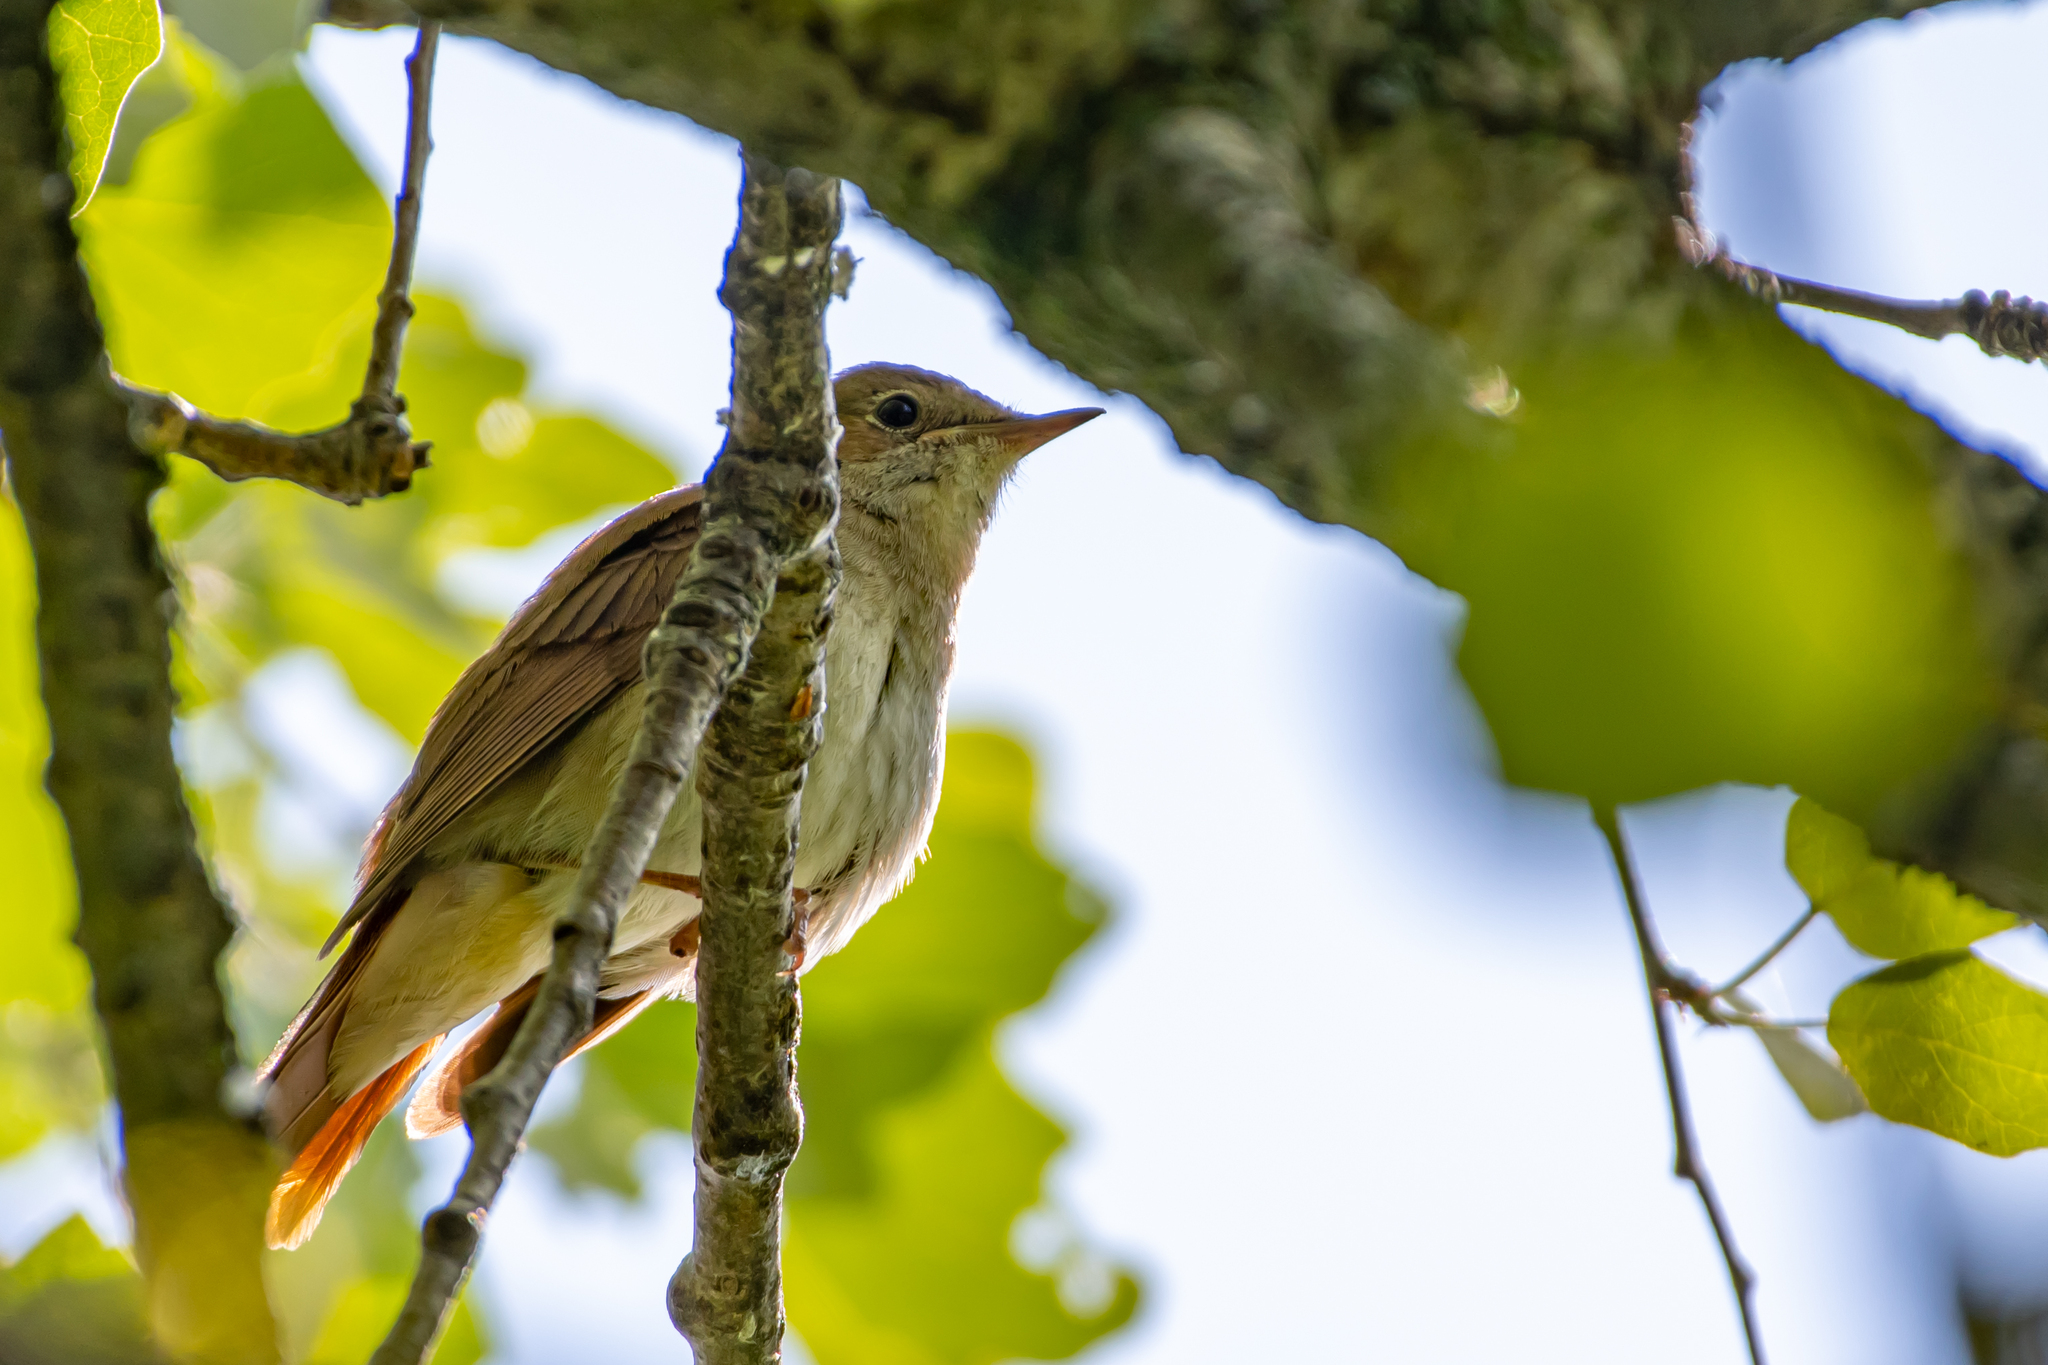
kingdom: Animalia
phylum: Chordata
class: Aves
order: Passeriformes
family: Muscicapidae
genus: Luscinia
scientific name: Luscinia megarhynchos
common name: Common nightingale
